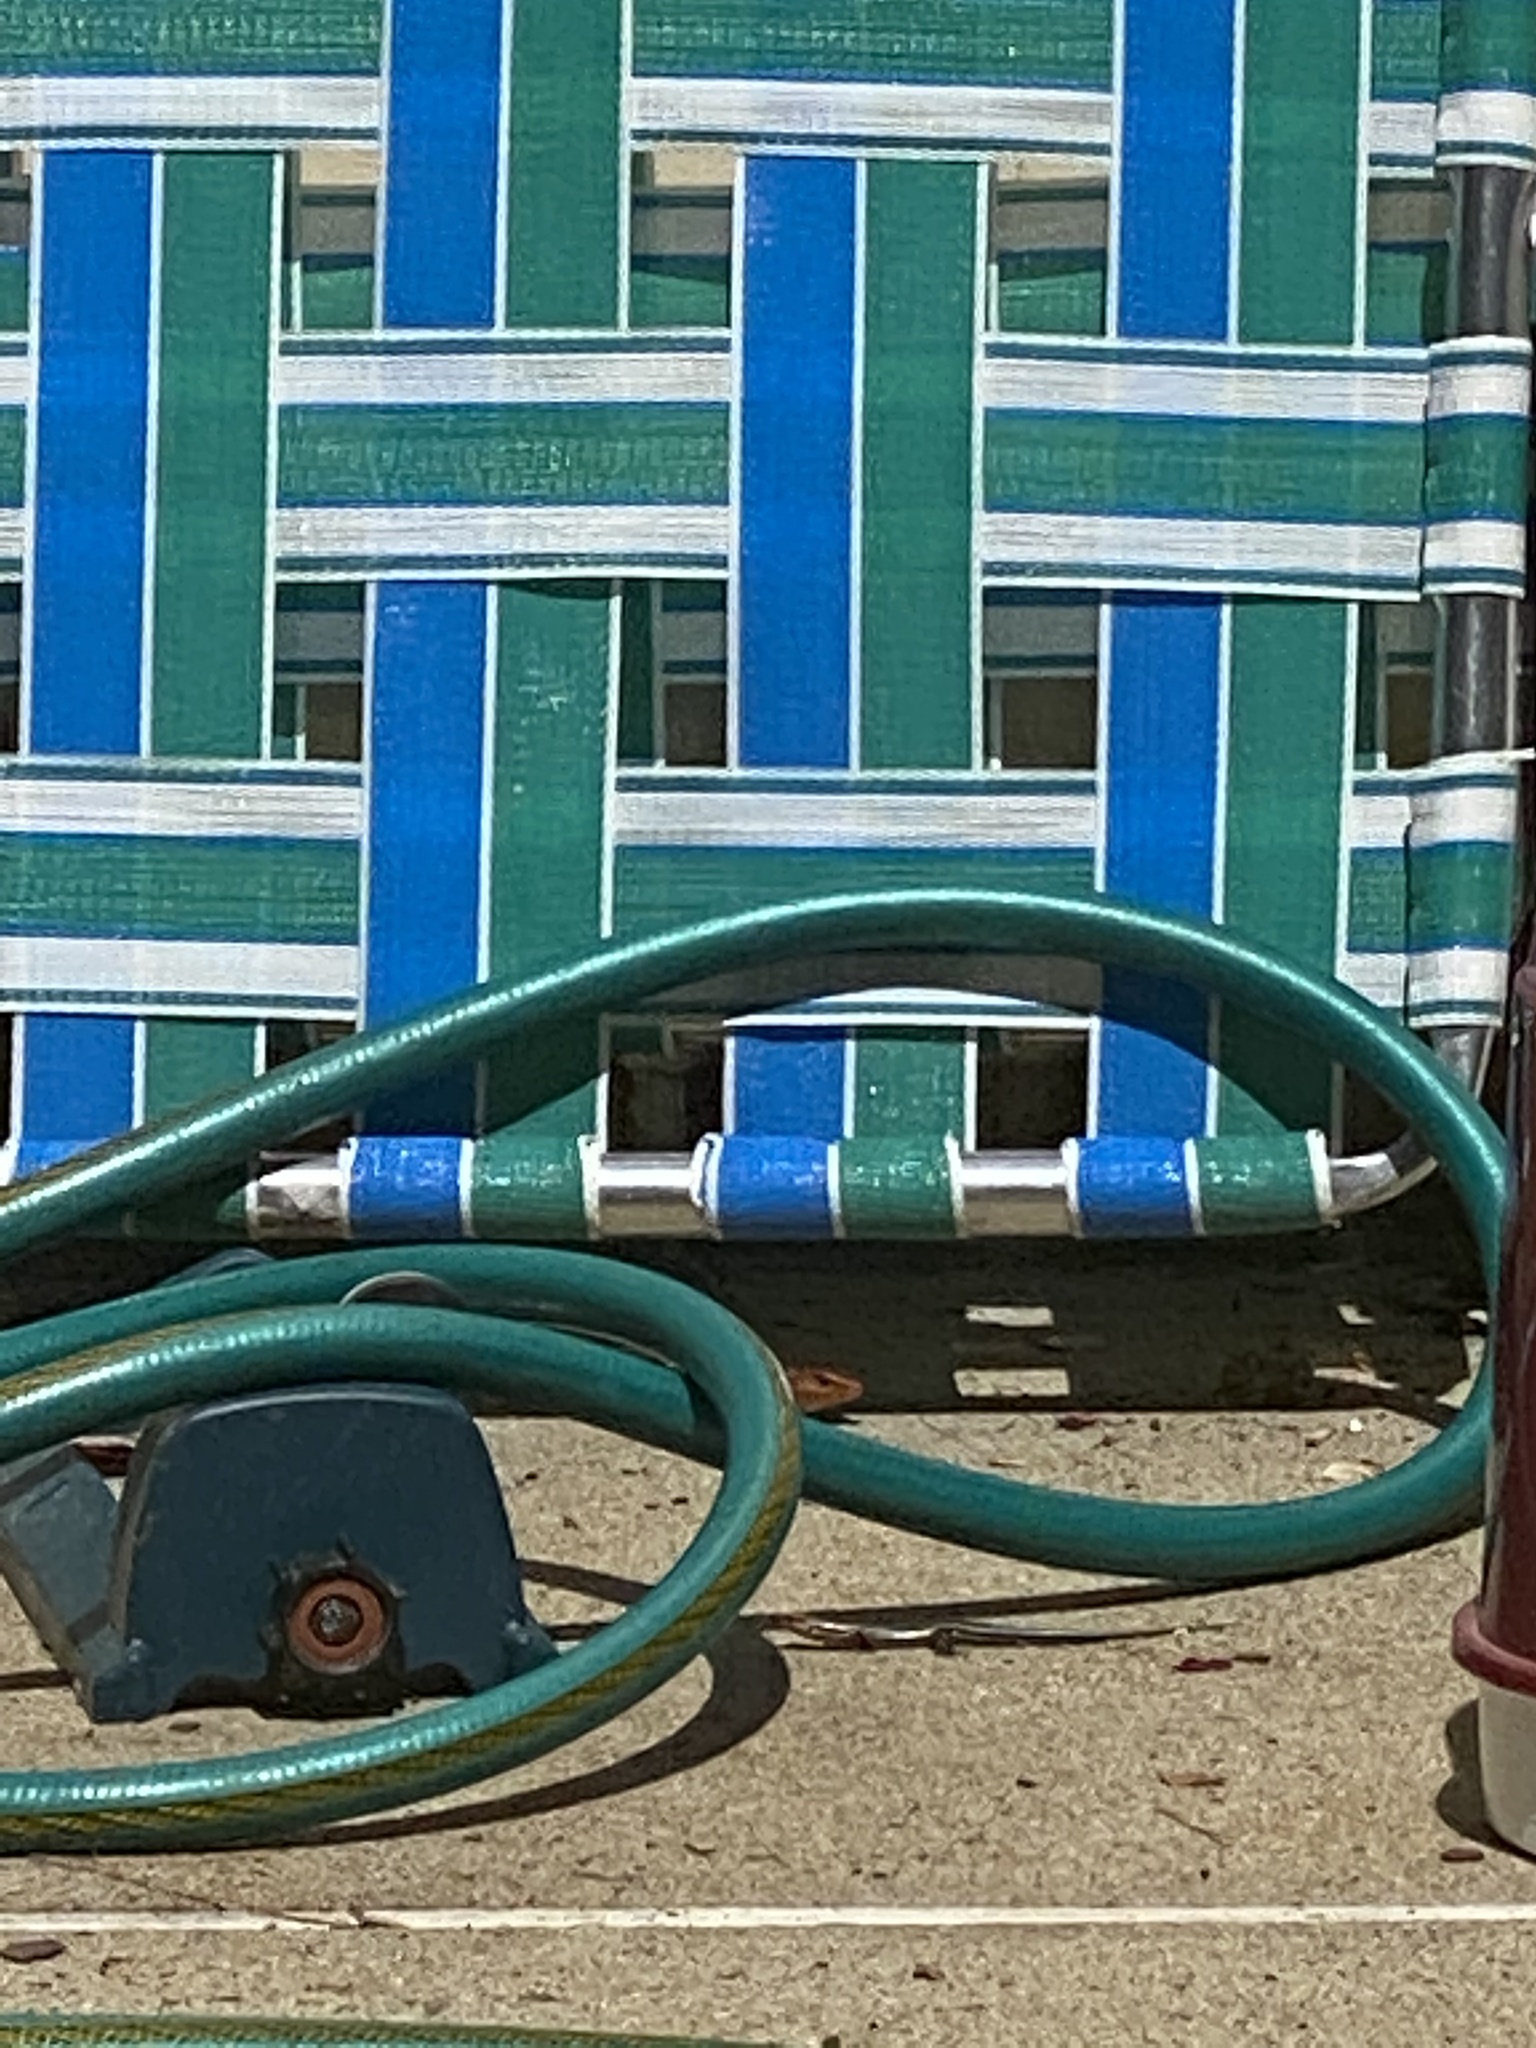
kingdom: Animalia
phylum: Chordata
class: Squamata
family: Scincidae
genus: Plestiodon
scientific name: Plestiodon laticeps
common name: Broadhead skink
